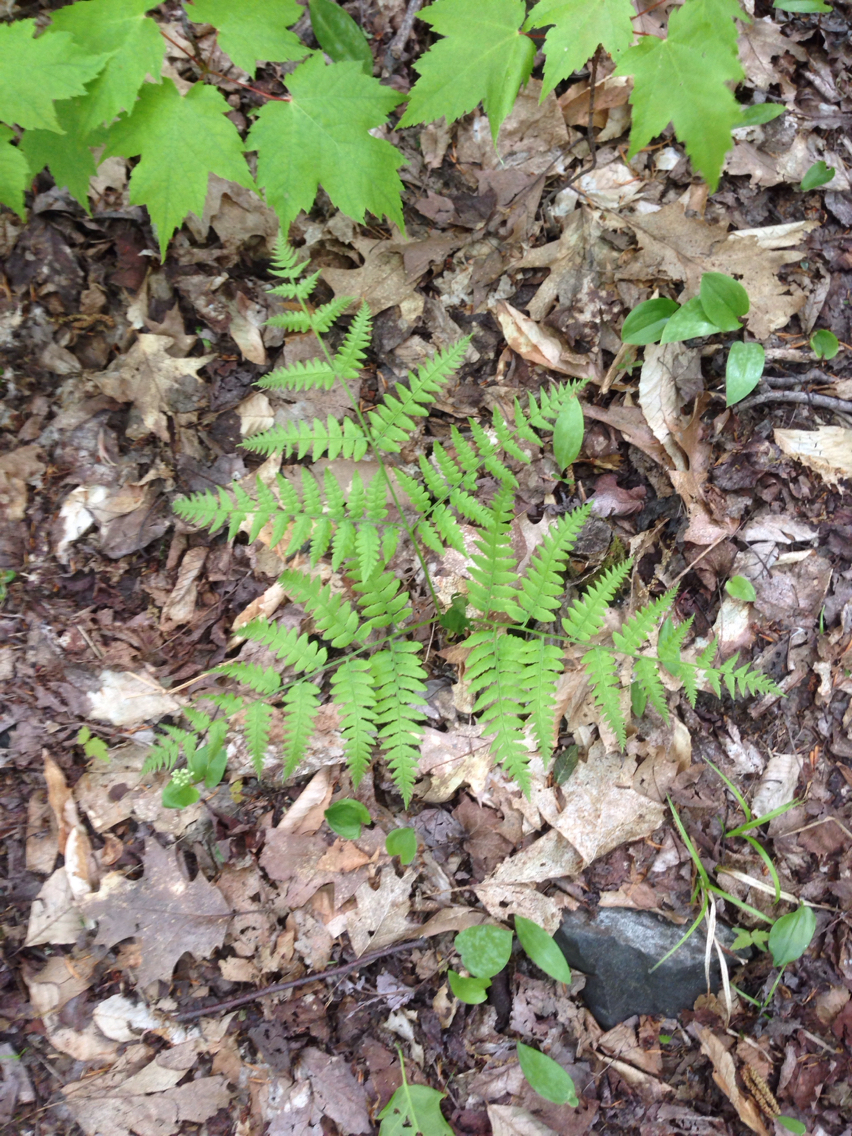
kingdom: Plantae
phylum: Tracheophyta
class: Polypodiopsida
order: Polypodiales
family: Dennstaedtiaceae
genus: Pteridium
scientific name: Pteridium aquilinum
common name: Bracken
